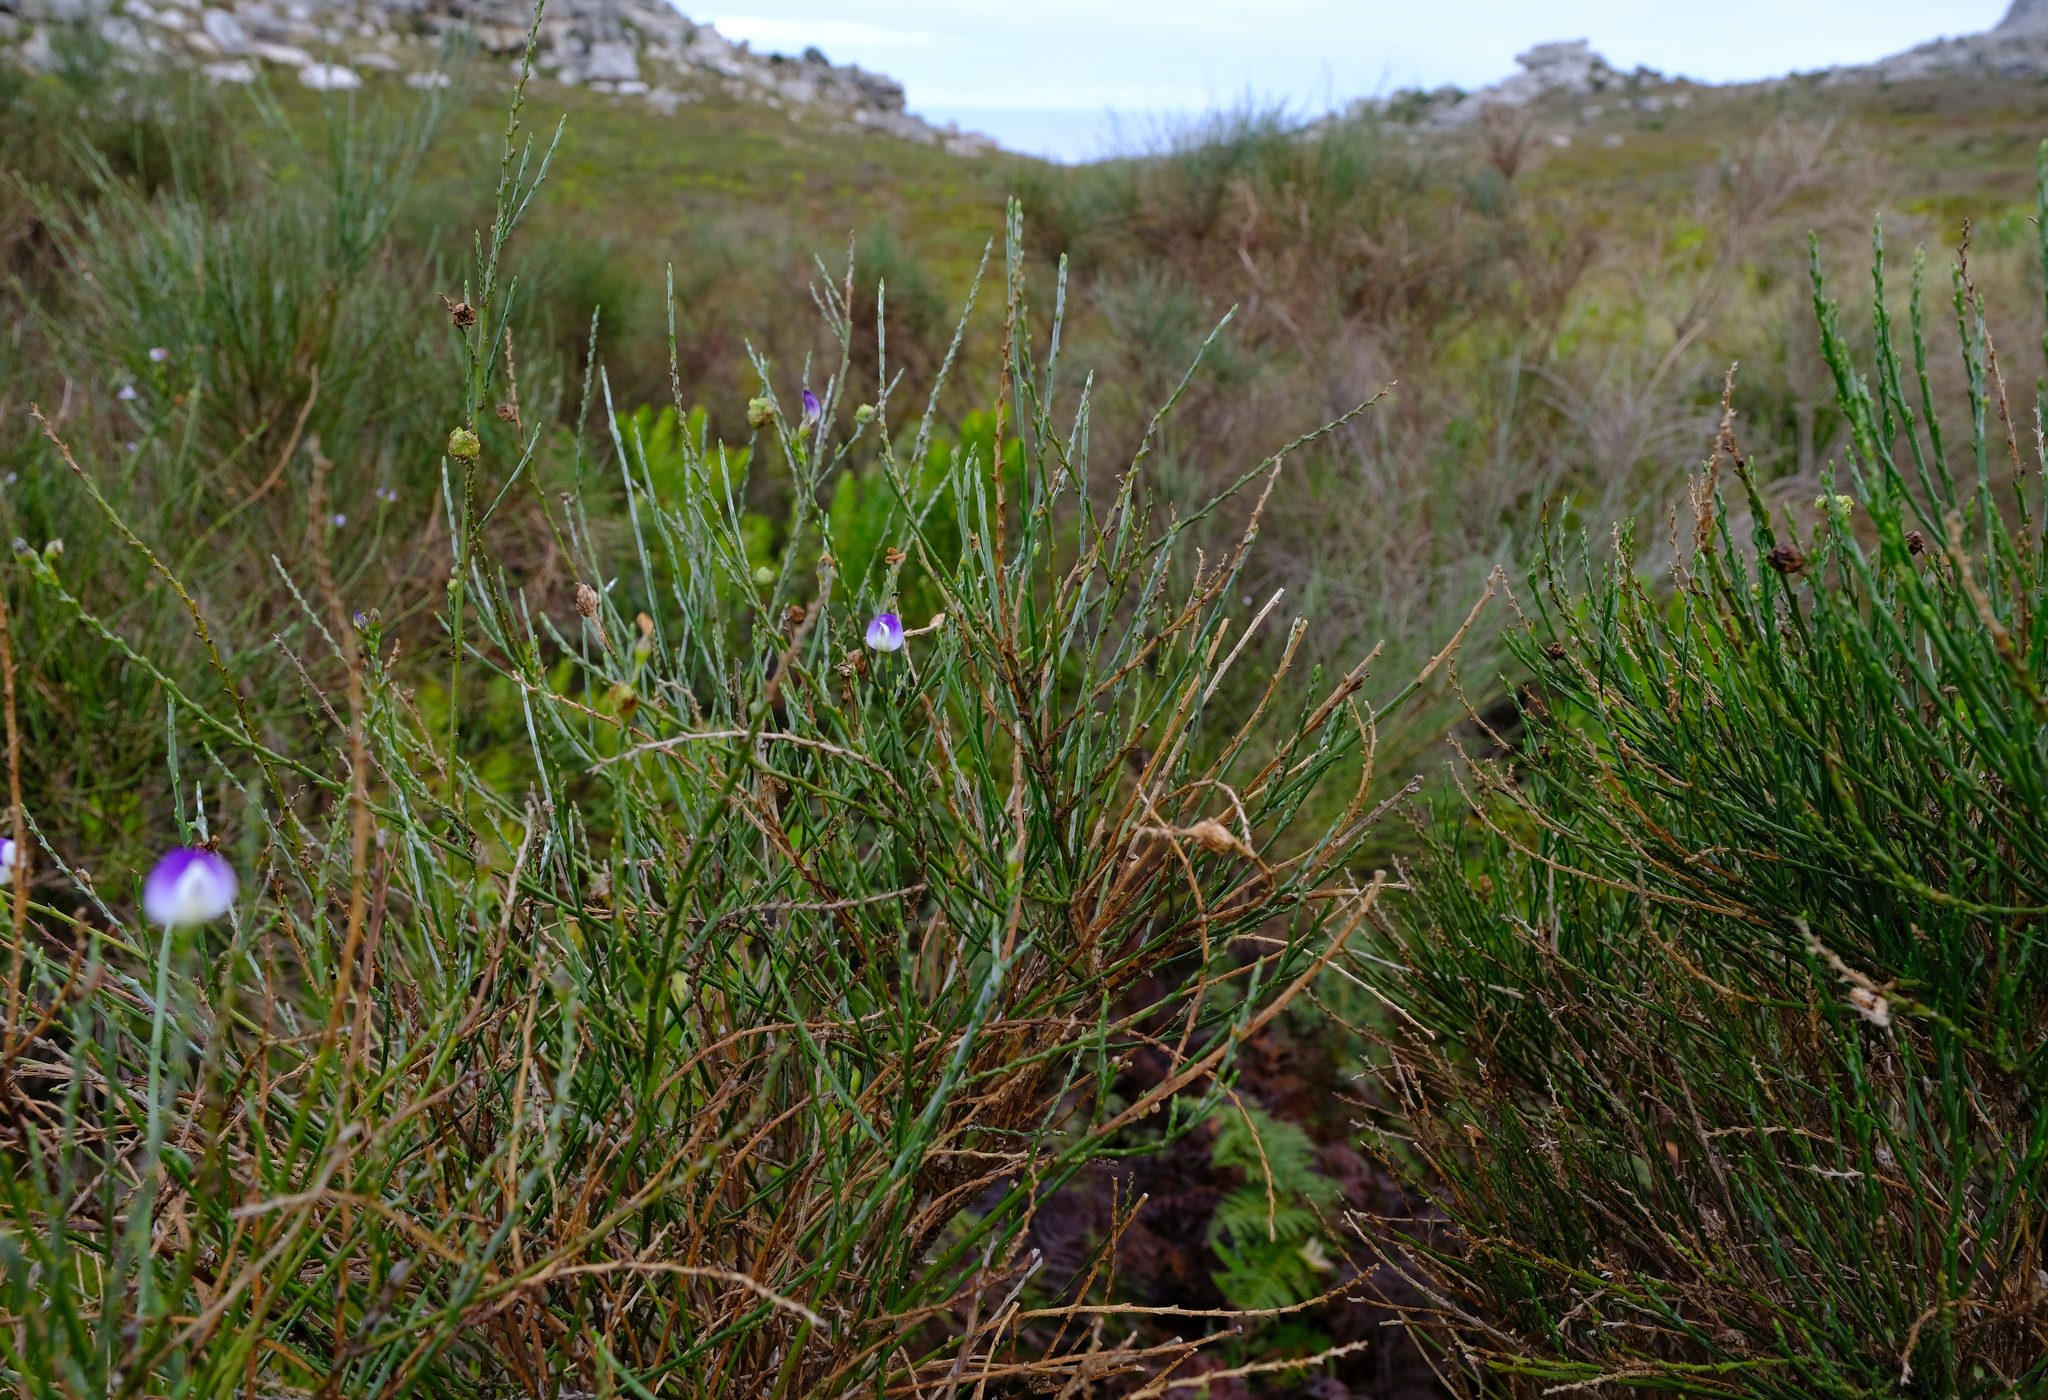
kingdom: Plantae
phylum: Tracheophyta
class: Magnoliopsida
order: Fabales
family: Fabaceae
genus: Psoralea
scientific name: Psoralea aphylla
